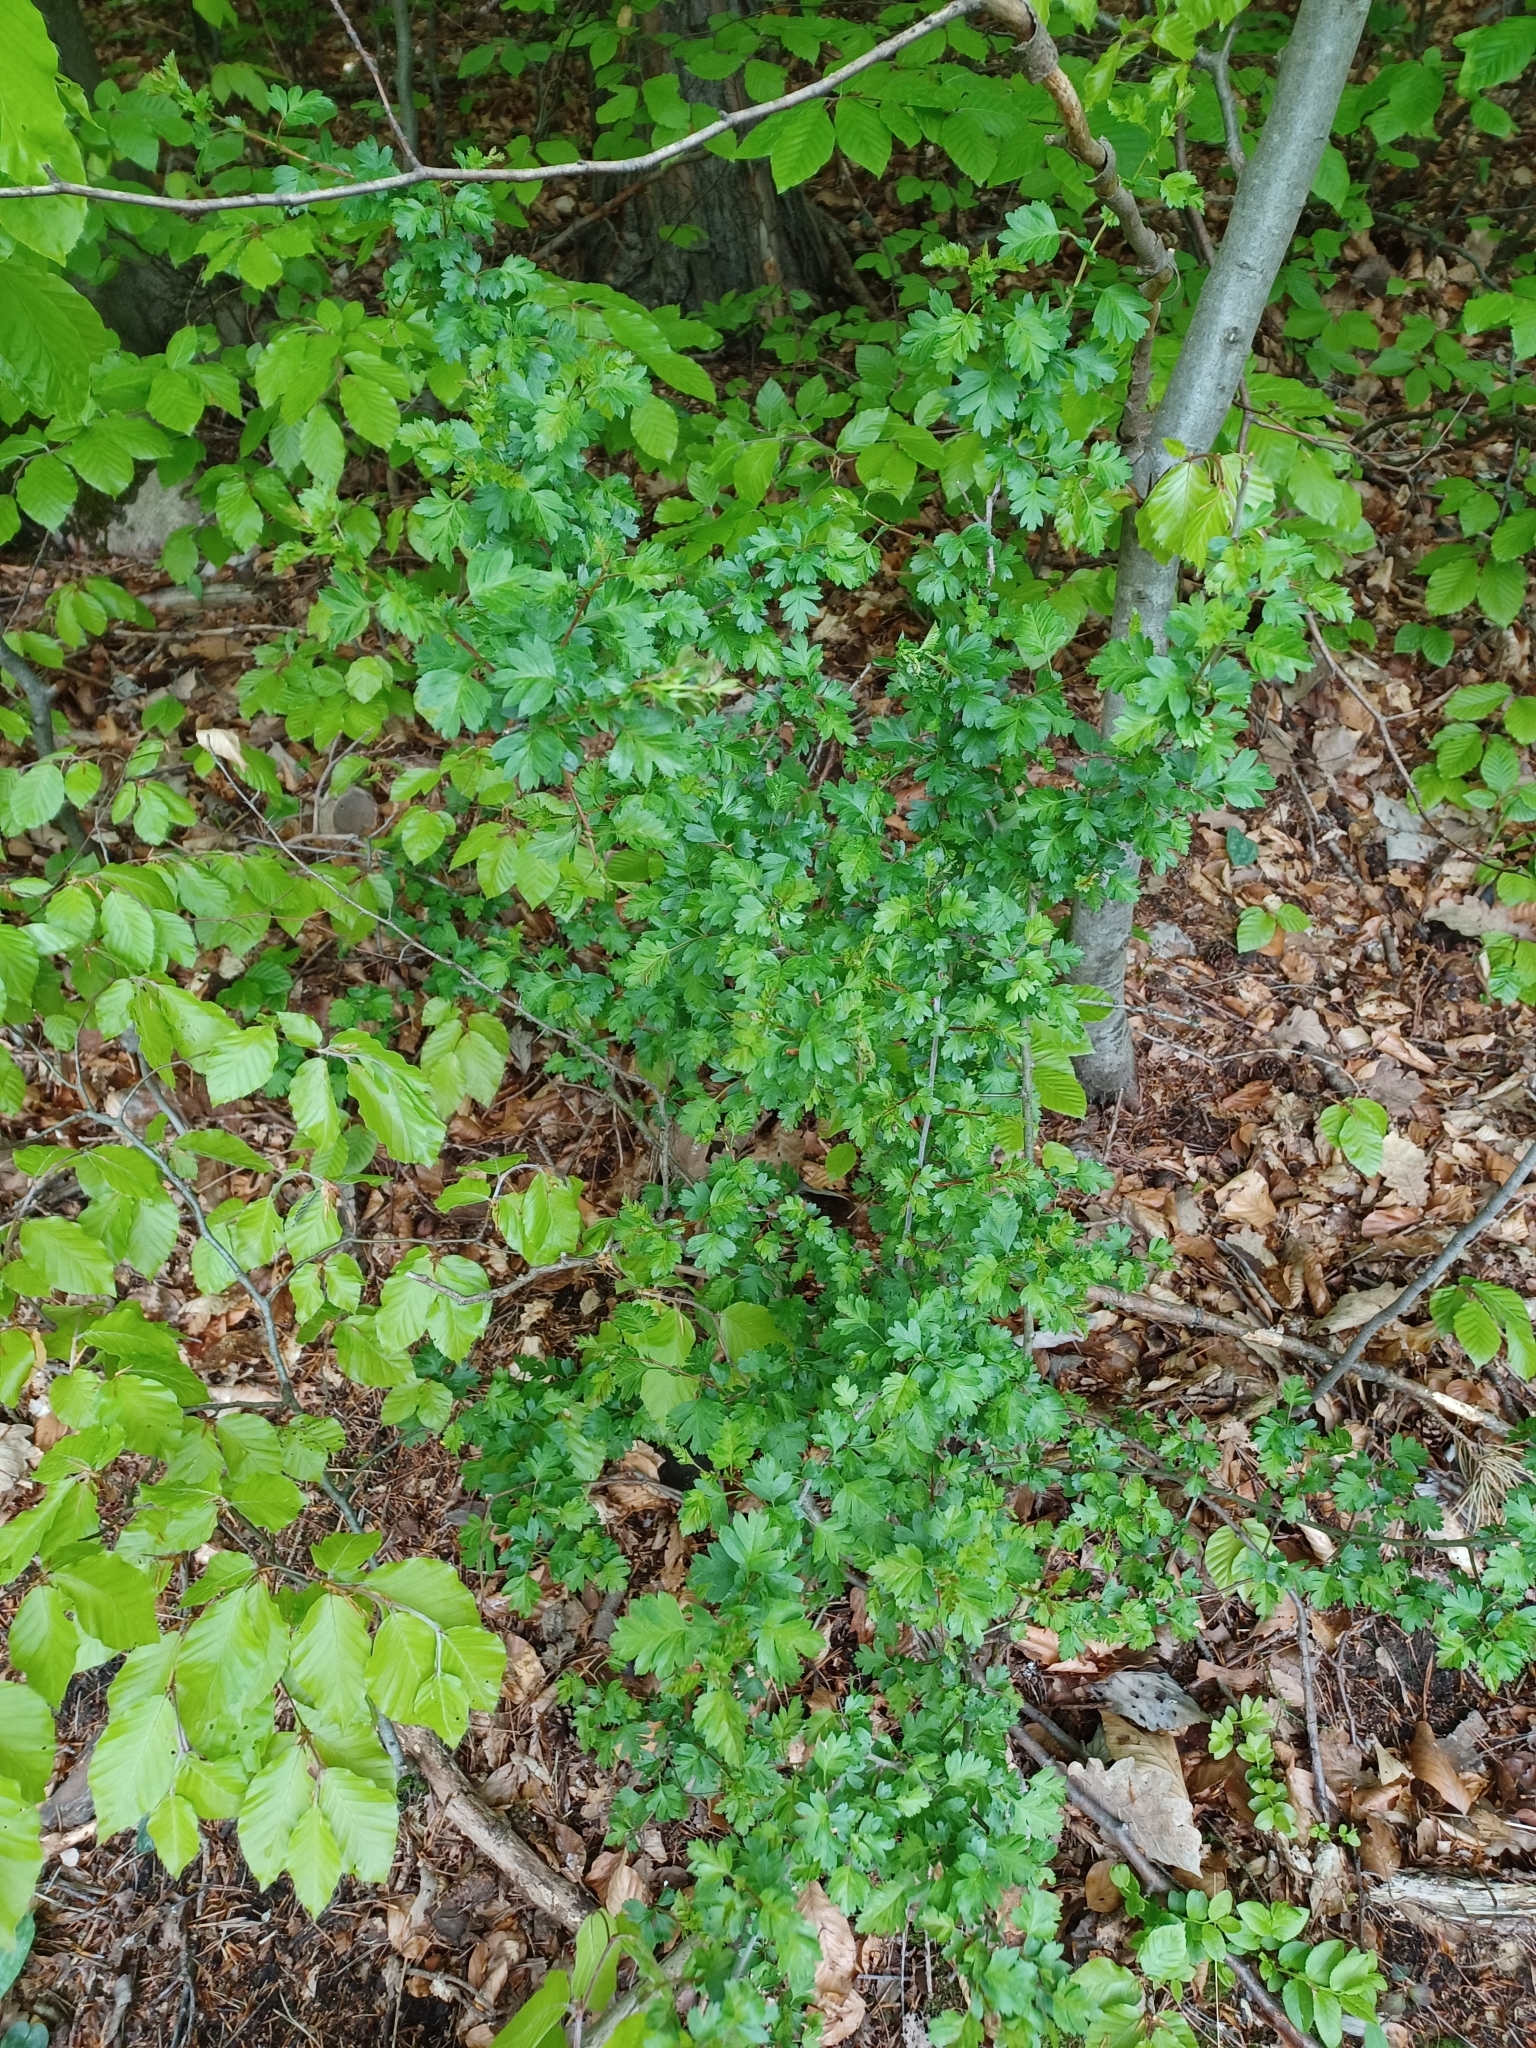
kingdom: Plantae
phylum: Tracheophyta
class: Magnoliopsida
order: Rosales
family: Rosaceae
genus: Crataegus
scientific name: Crataegus monogyna
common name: Hawthorn
